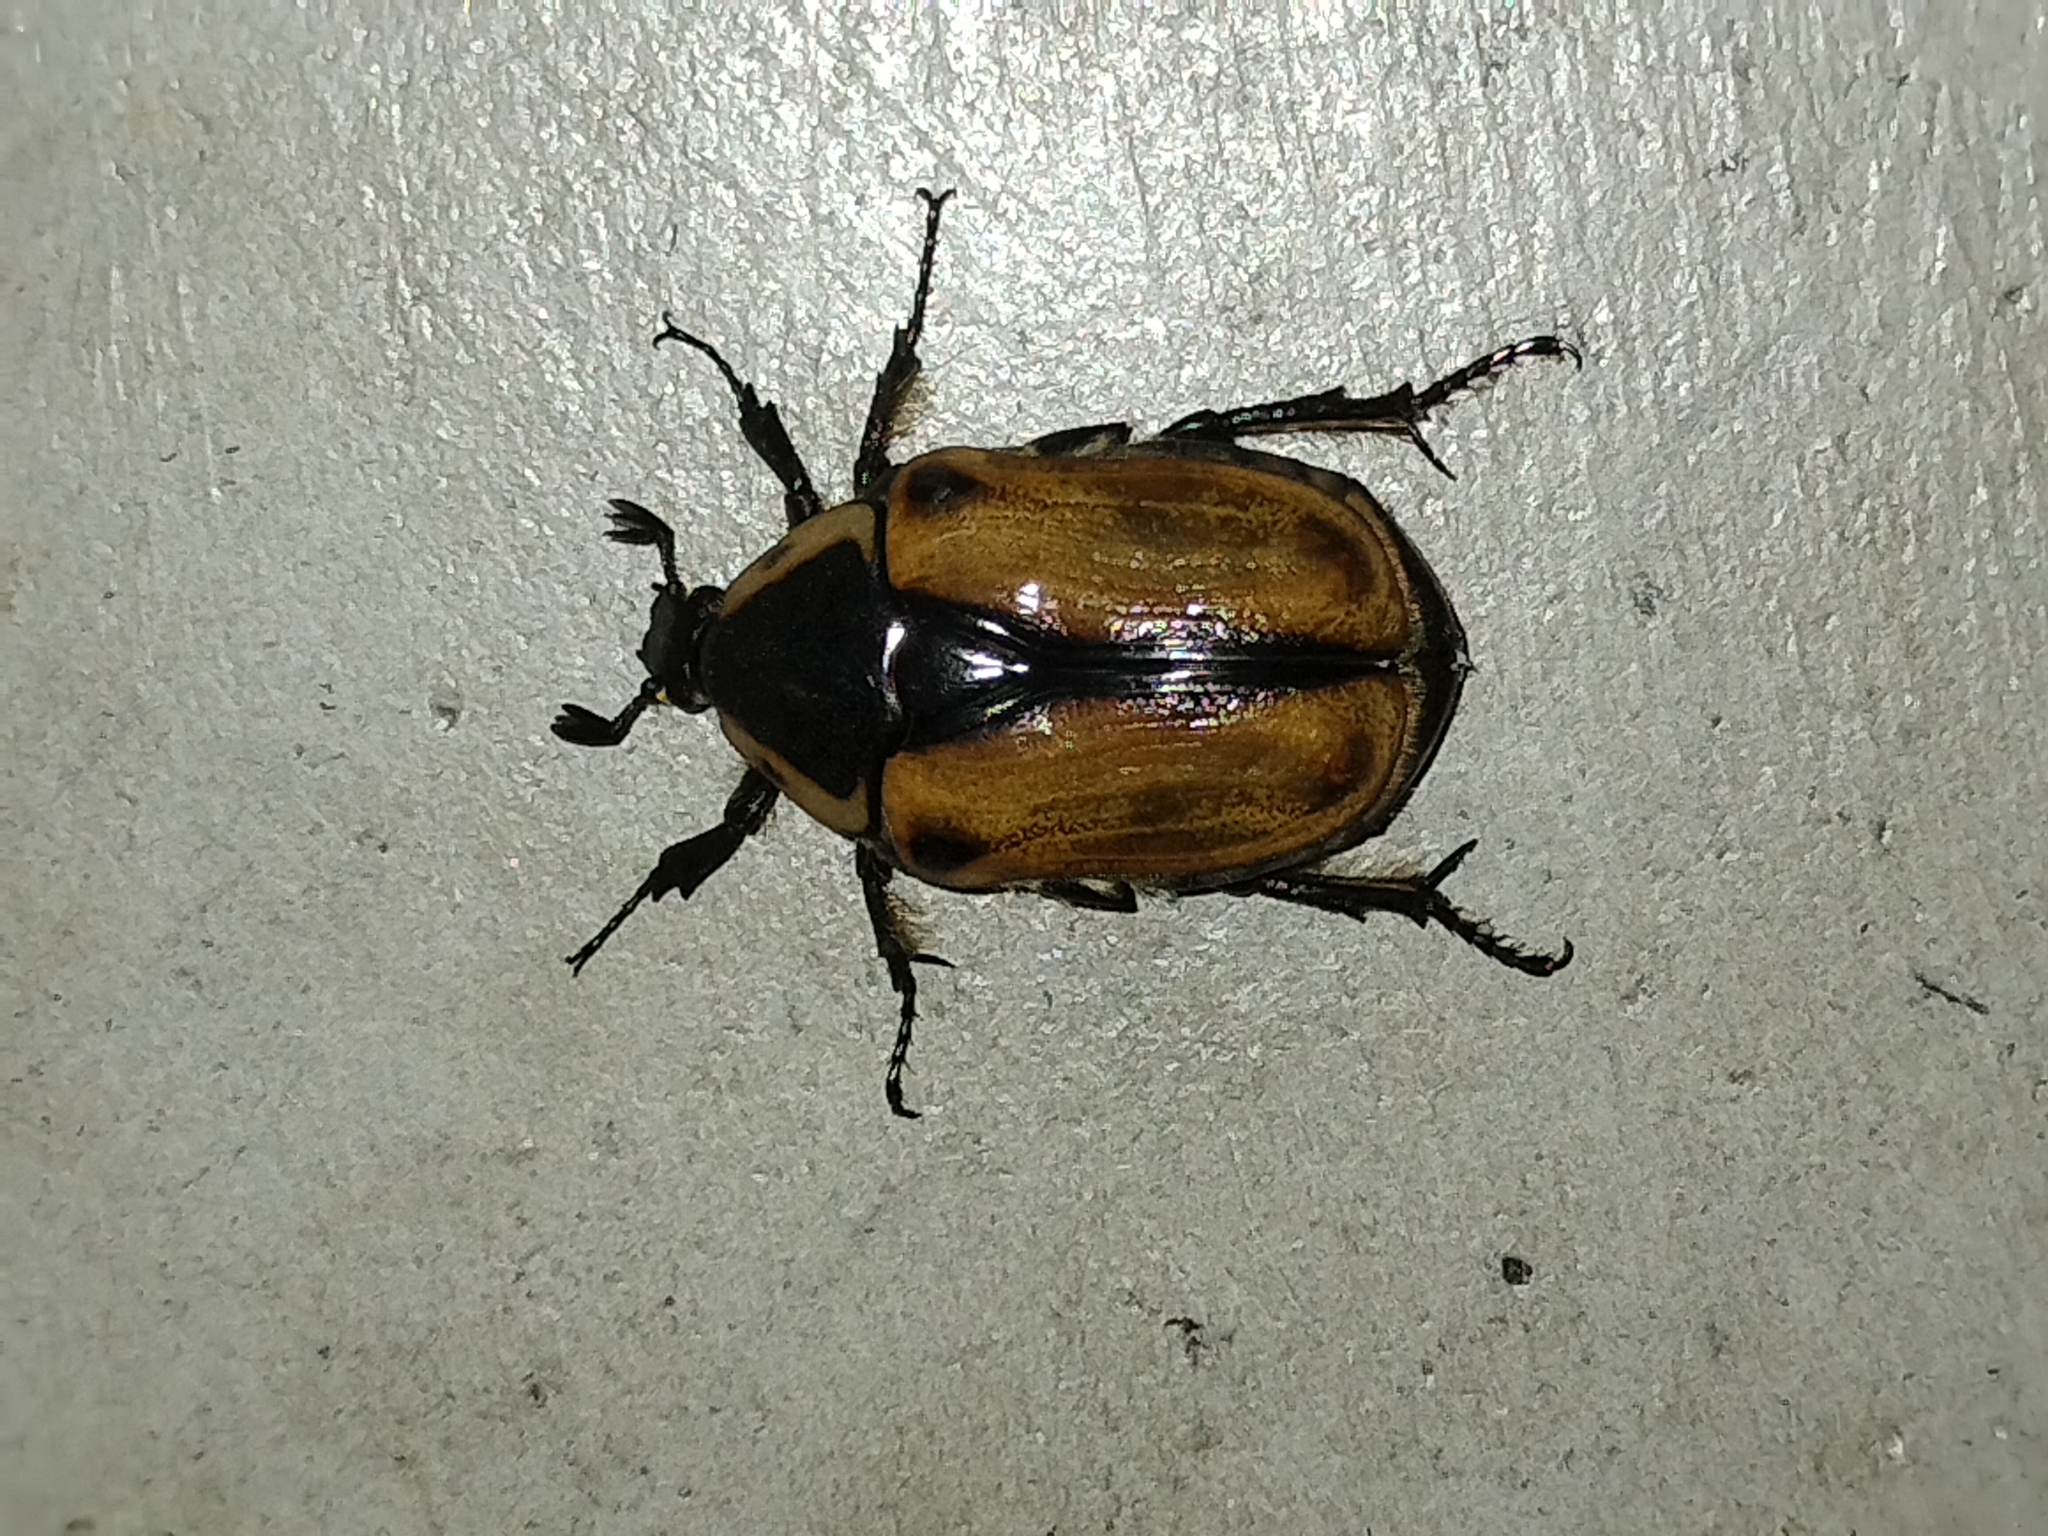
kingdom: Animalia
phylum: Arthropoda
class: Insecta
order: Coleoptera
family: Scarabaeidae
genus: Chondropyga
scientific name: Chondropyga dorsalis
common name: Cowboy beetle
